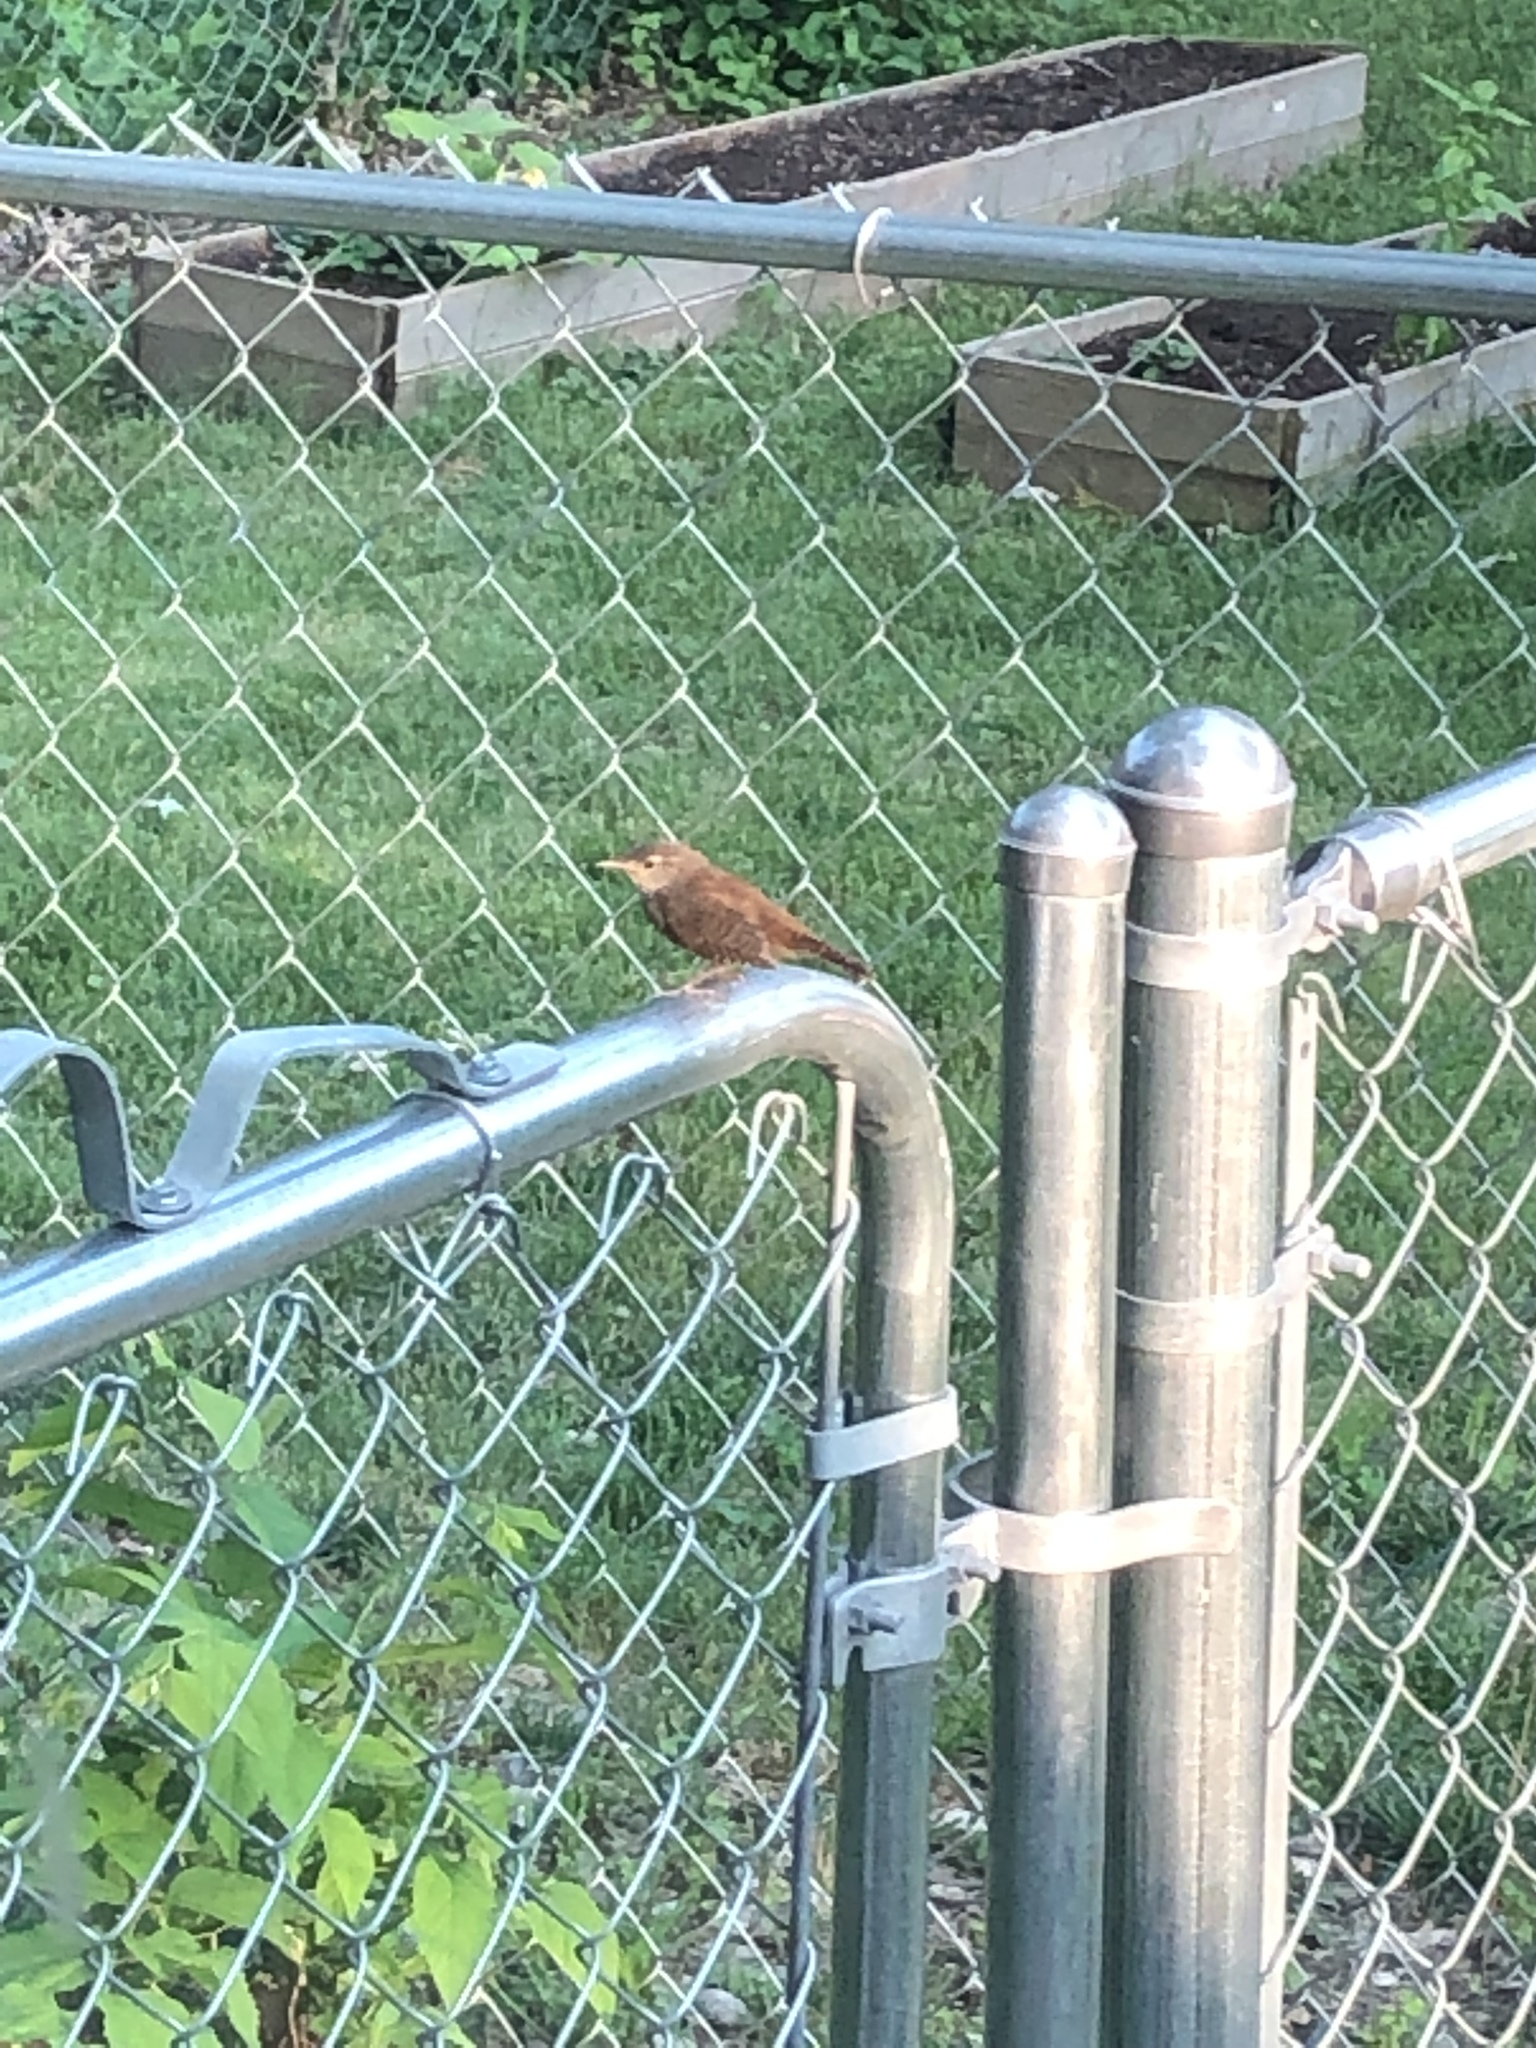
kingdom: Animalia
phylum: Chordata
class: Aves
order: Passeriformes
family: Troglodytidae
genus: Troglodytes
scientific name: Troglodytes aedon
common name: House wren
